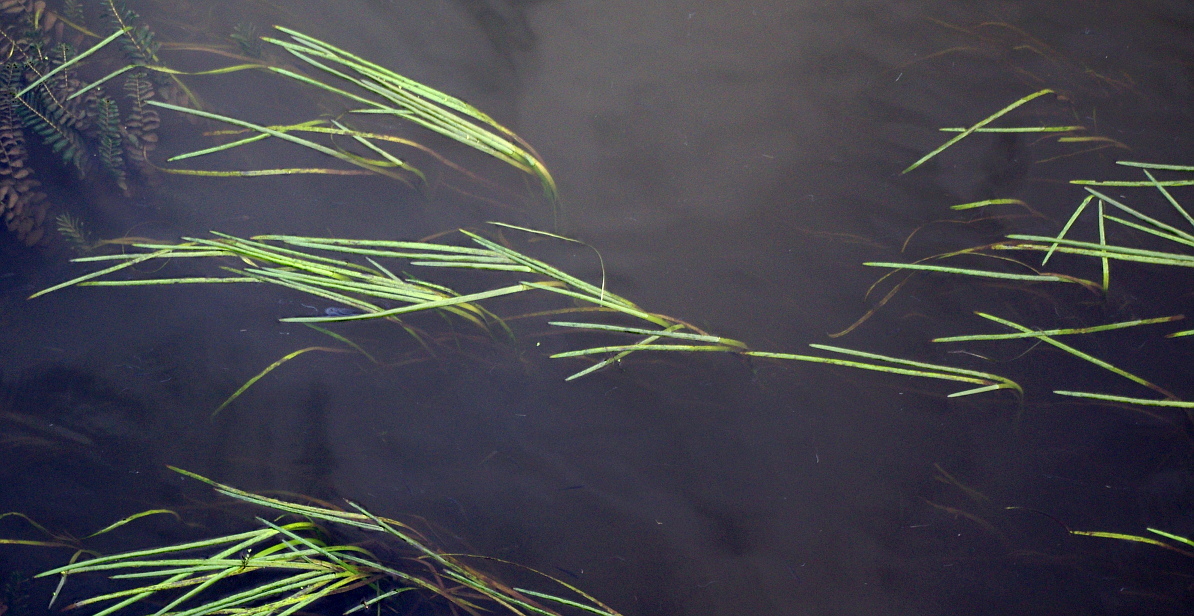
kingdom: Plantae
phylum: Tracheophyta
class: Liliopsida
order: Poales
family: Typhaceae
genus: Sparganium
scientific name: Sparganium emersum
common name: Unbranched bur-reed
